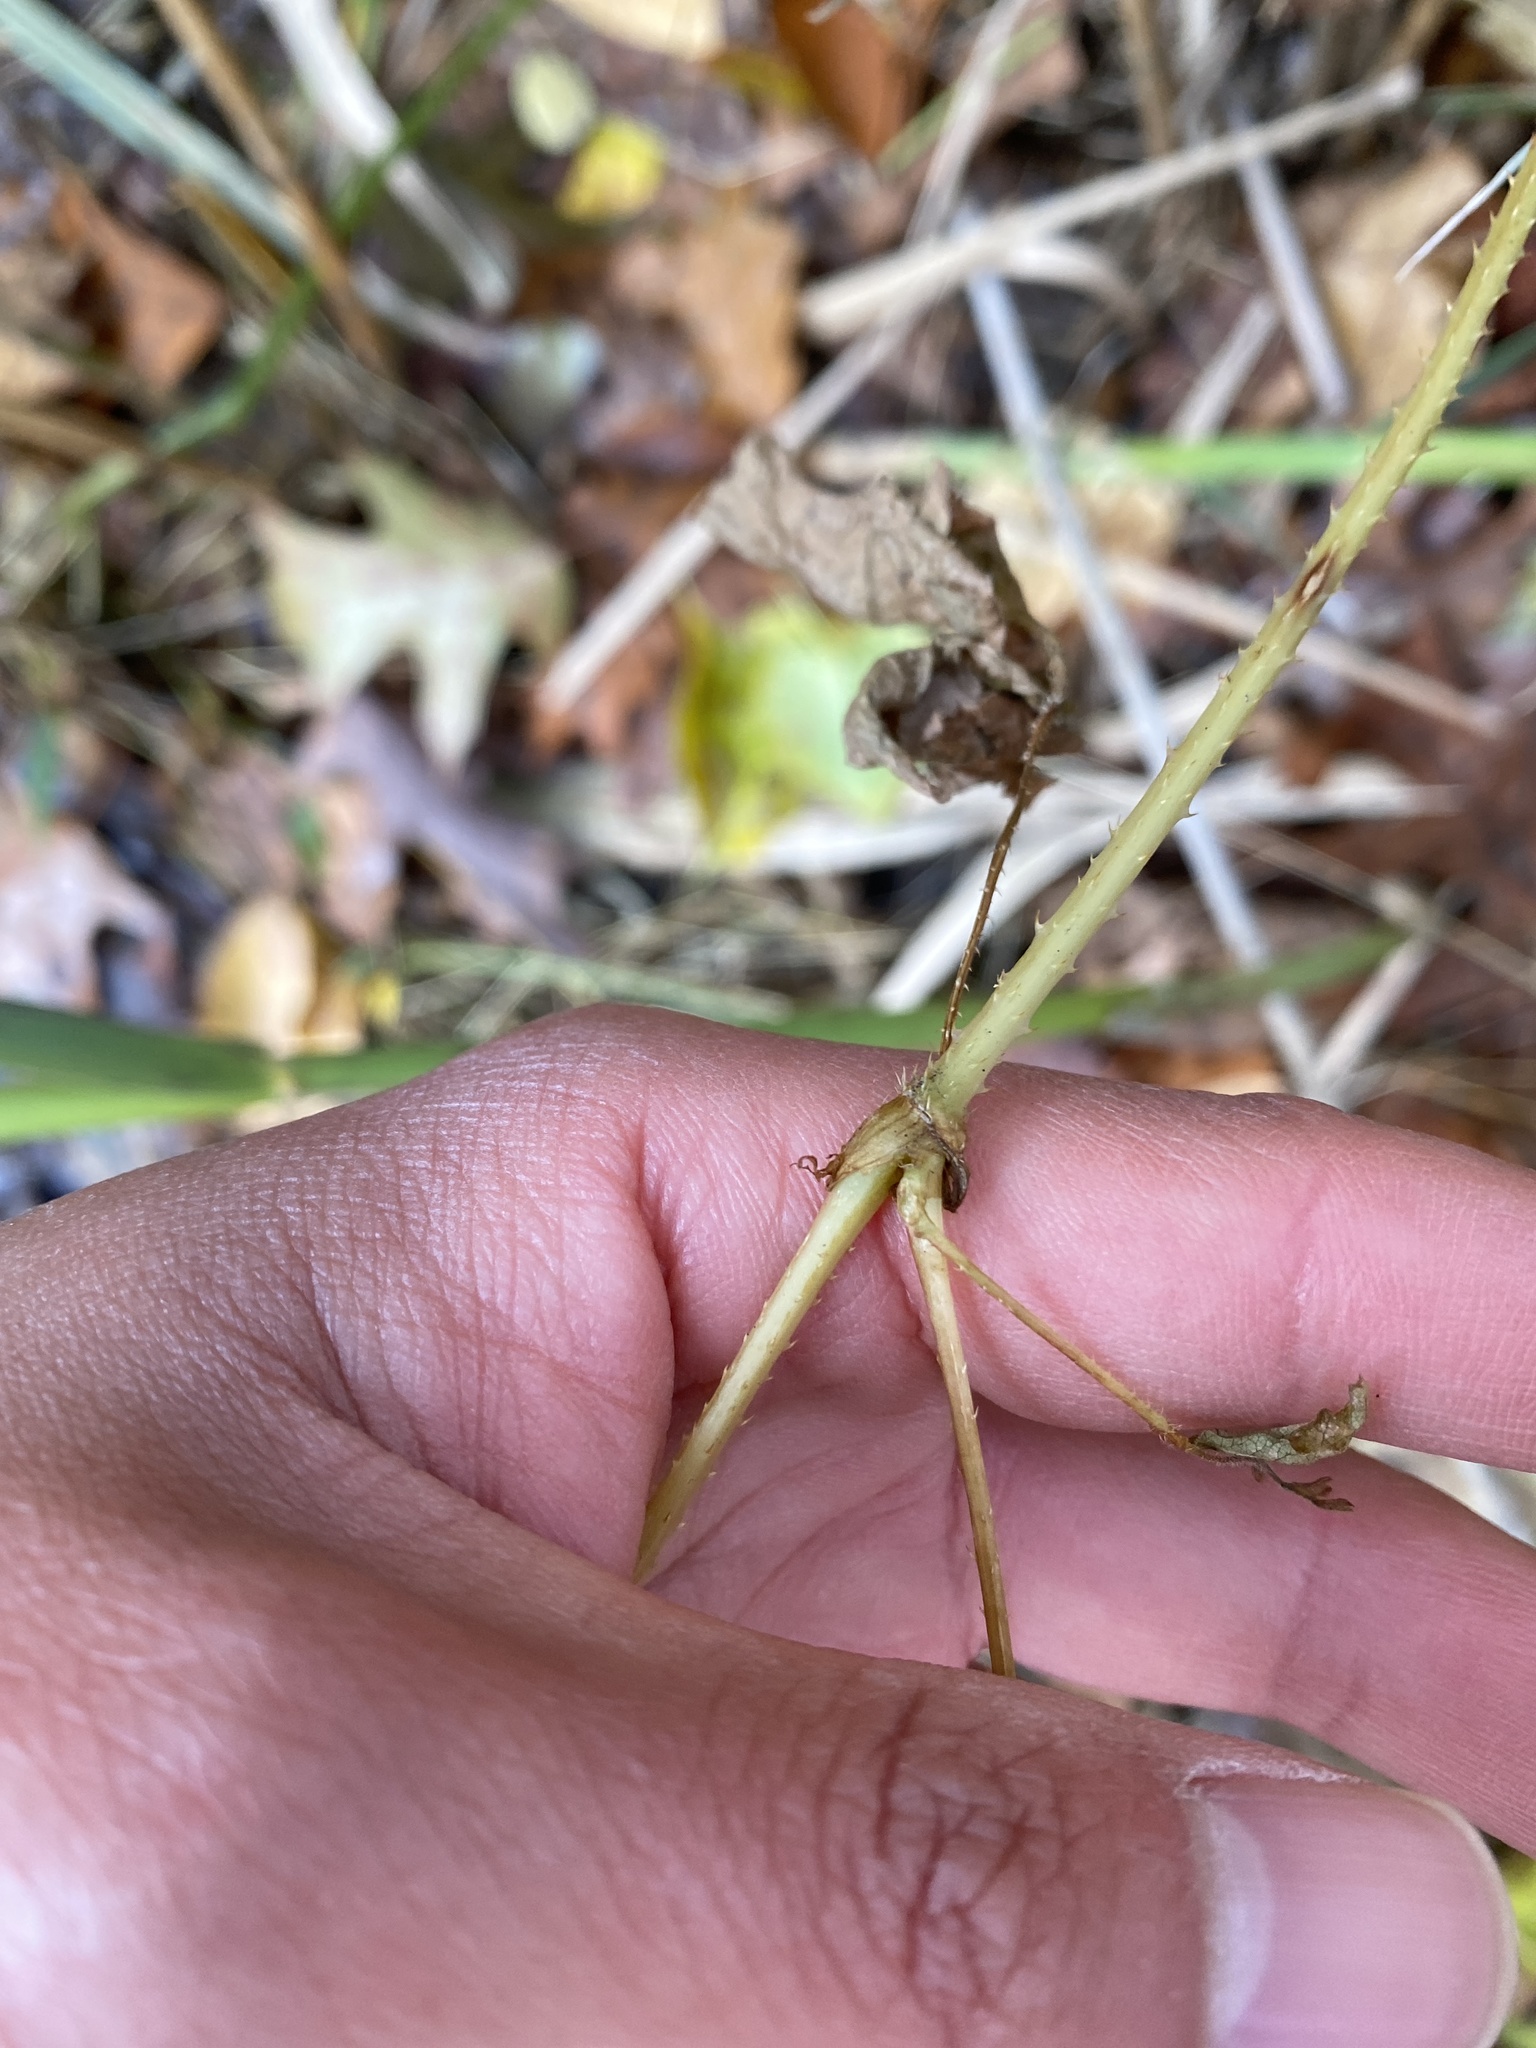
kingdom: Plantae
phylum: Tracheophyta
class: Magnoliopsida
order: Caryophyllales
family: Polygonaceae
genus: Persicaria
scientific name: Persicaria arifolia
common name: Halberd-leaved tear-thumb
